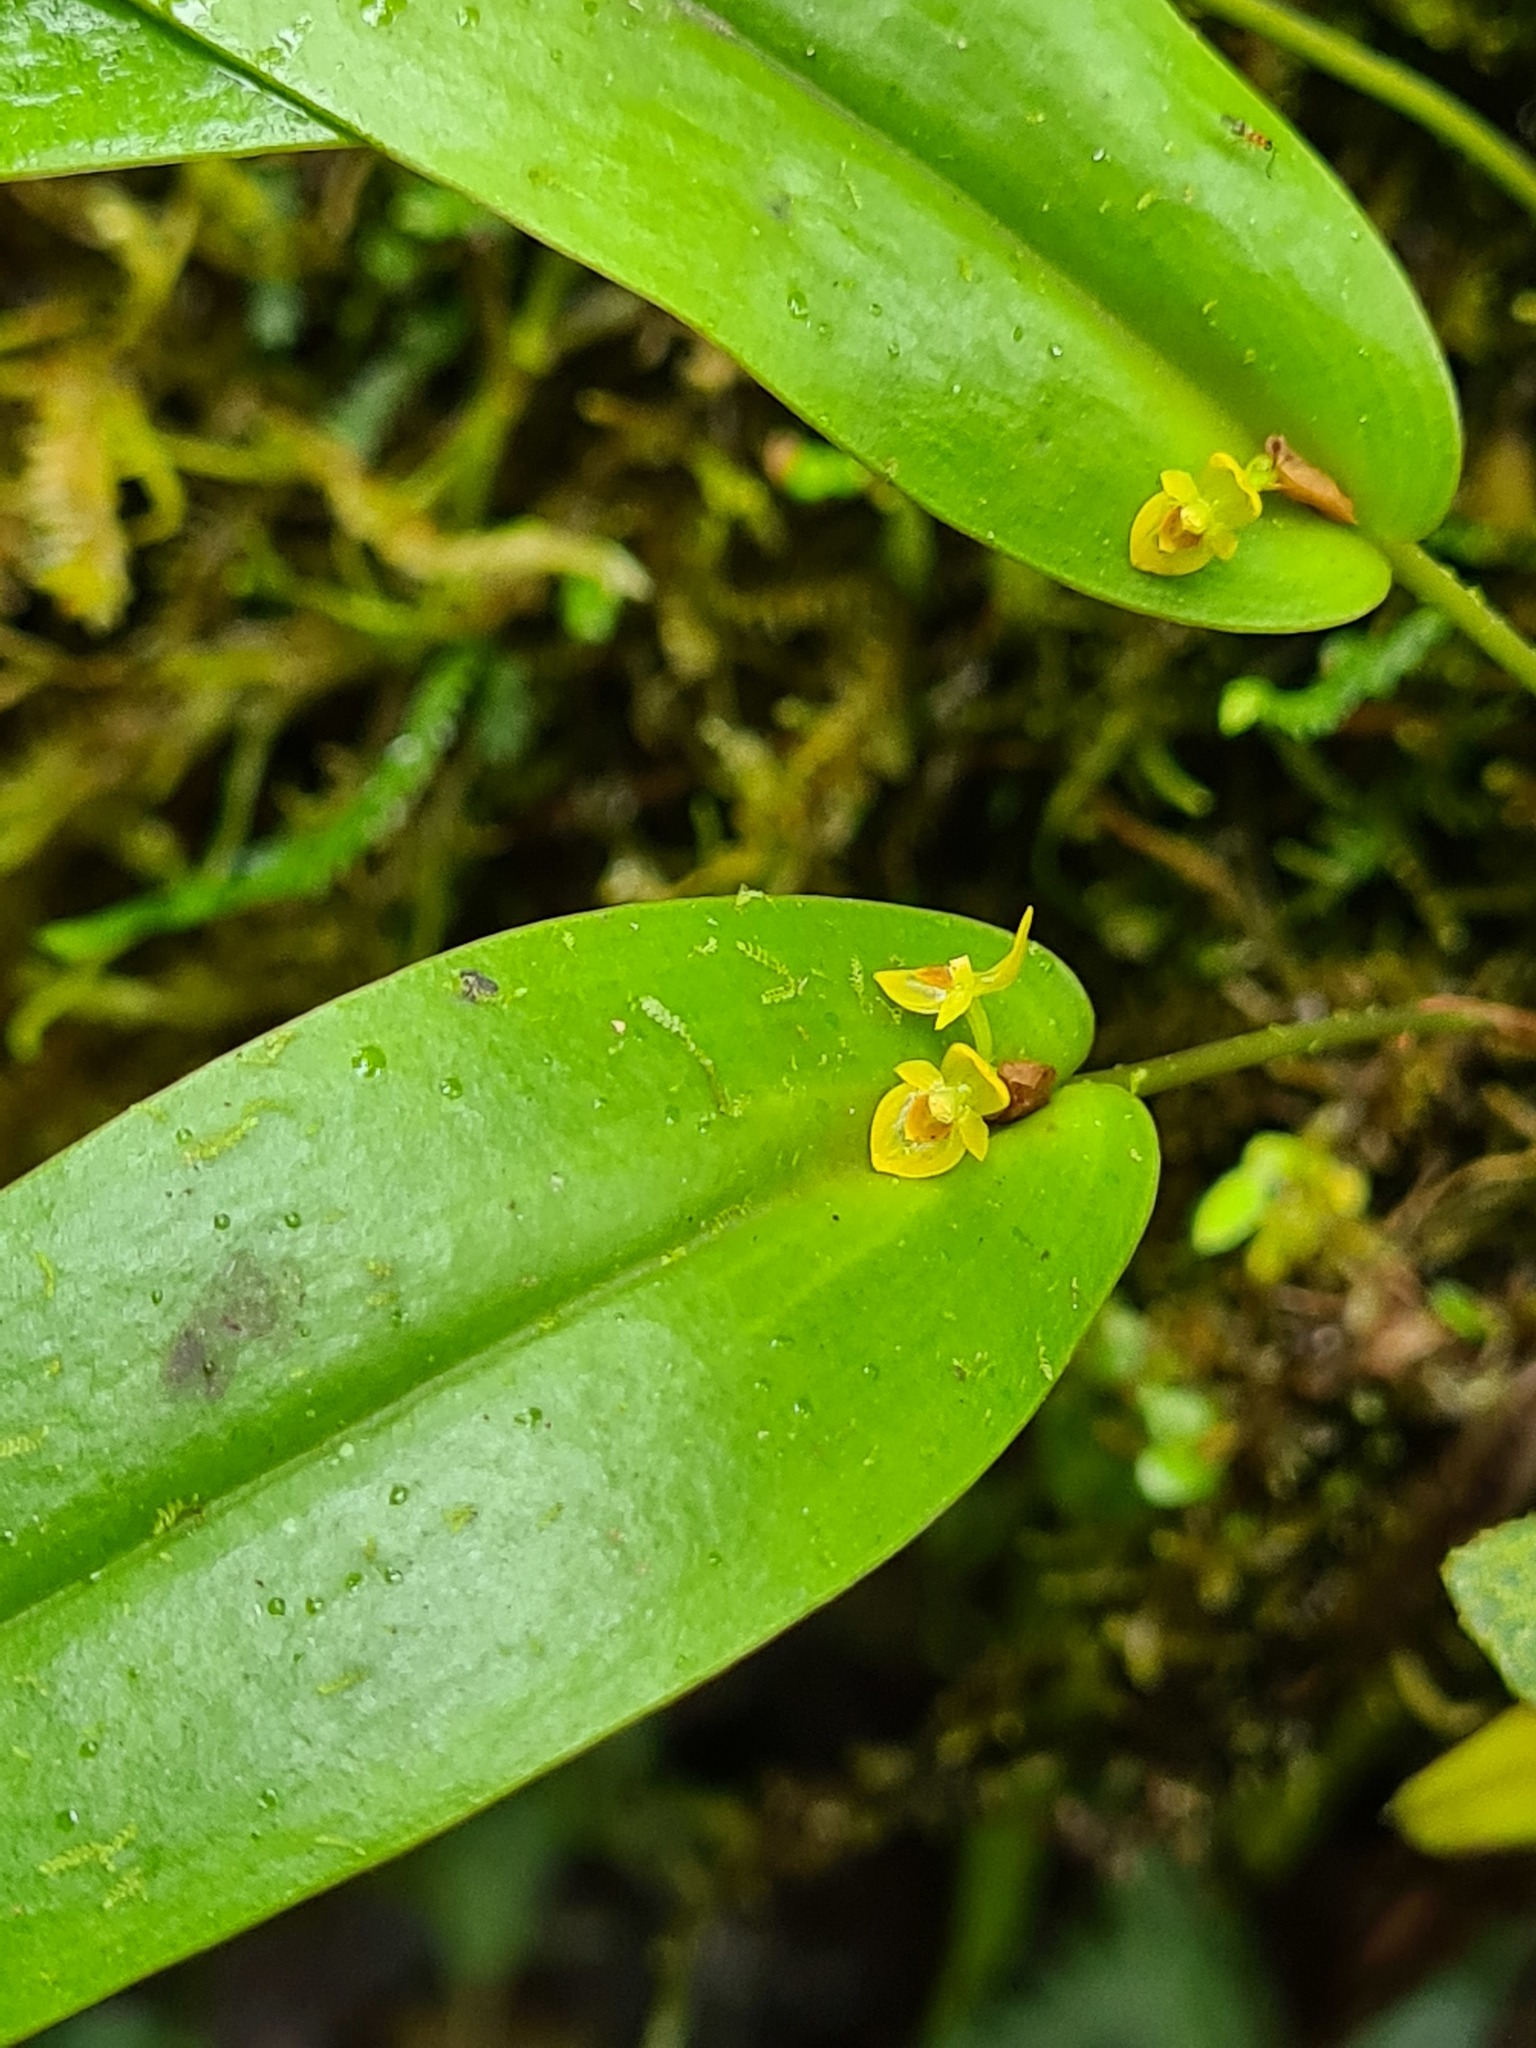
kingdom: Plantae
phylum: Tracheophyta
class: Liliopsida
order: Asparagales
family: Orchidaceae
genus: Pleurothallis
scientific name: Pleurothallis dibolia
